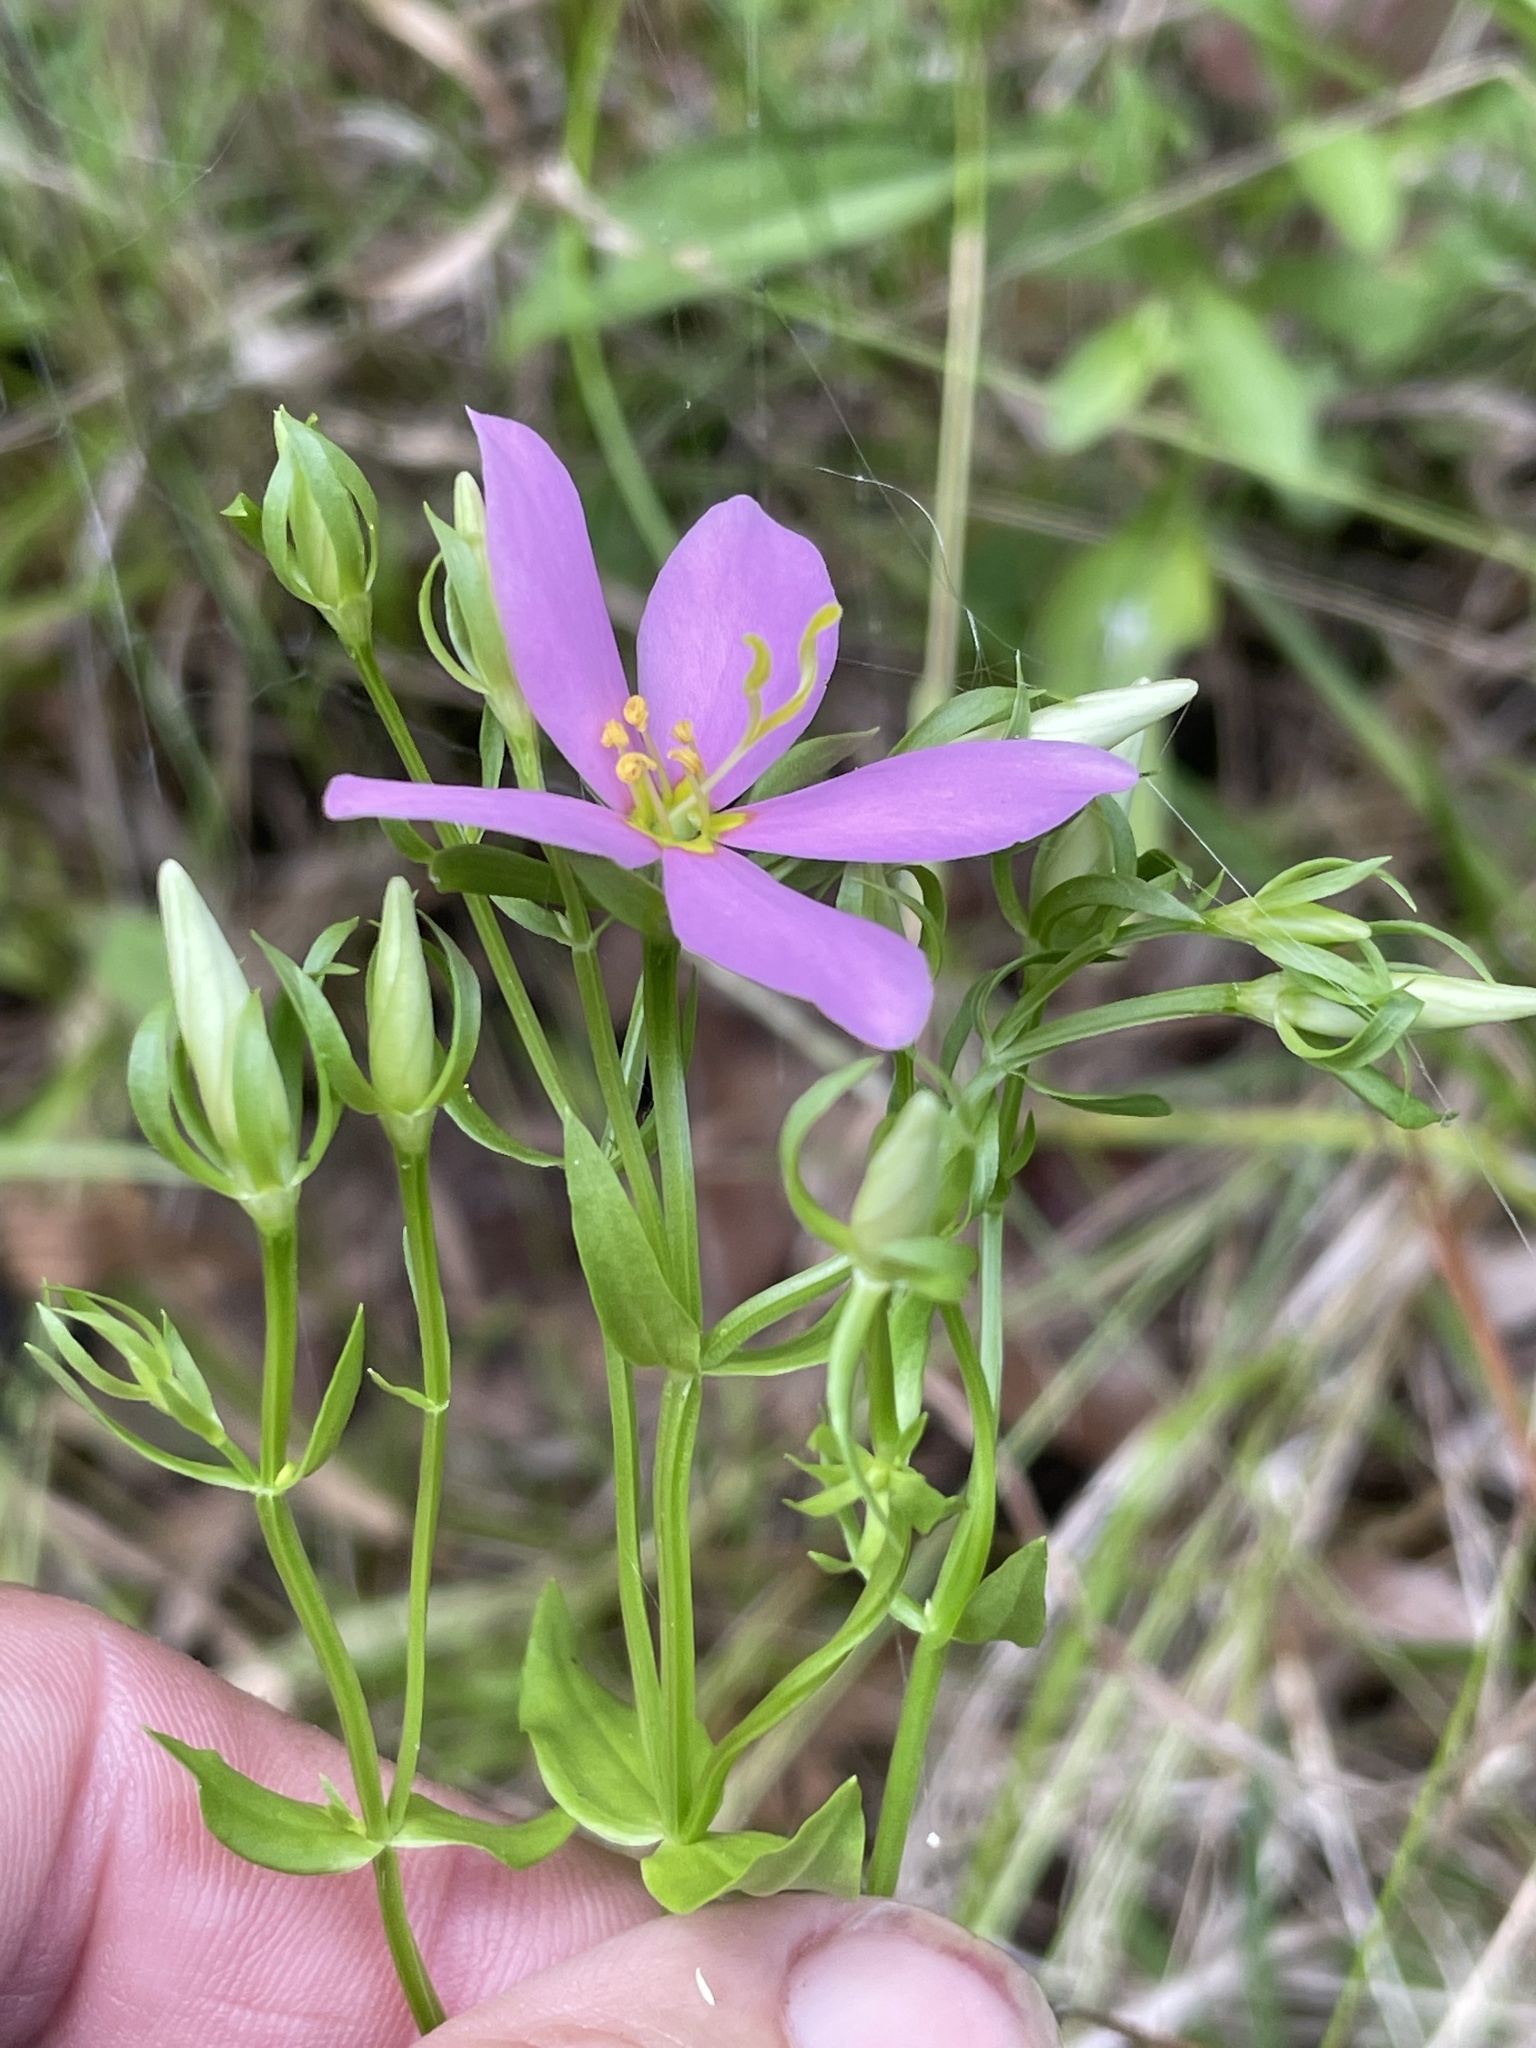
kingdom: Plantae
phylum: Tracheophyta
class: Magnoliopsida
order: Gentianales
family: Gentianaceae
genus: Sabatia
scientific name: Sabatia angularis
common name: Rose-pink
